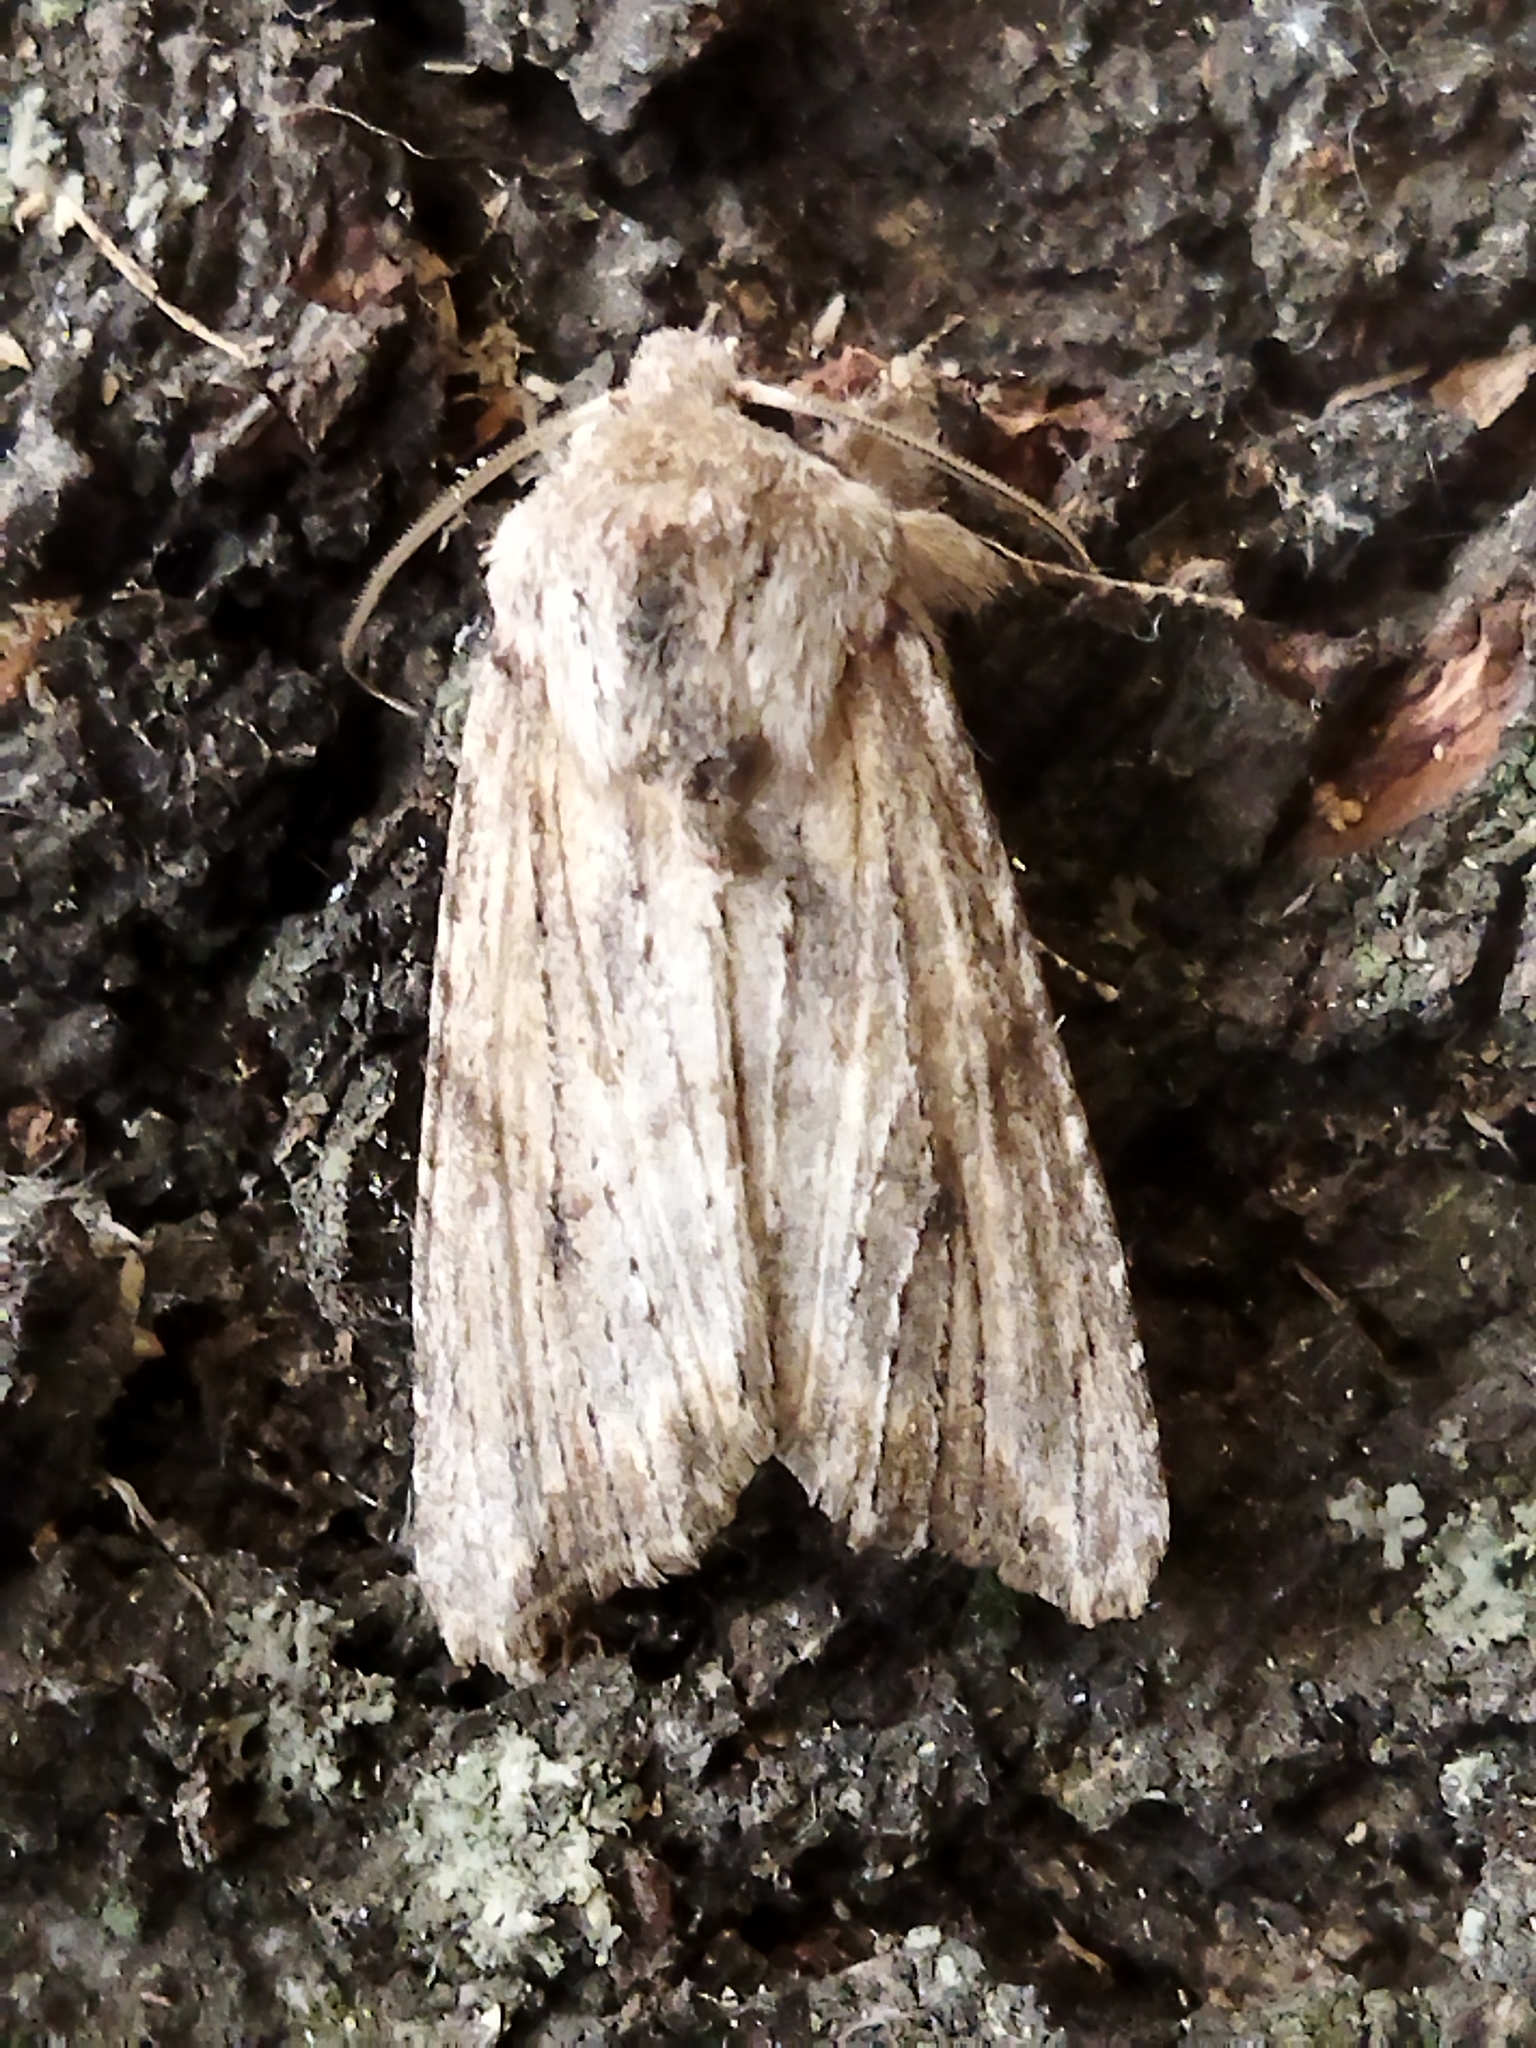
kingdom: Animalia
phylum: Arthropoda
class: Insecta
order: Lepidoptera
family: Noctuidae
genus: Egira
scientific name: Egira
